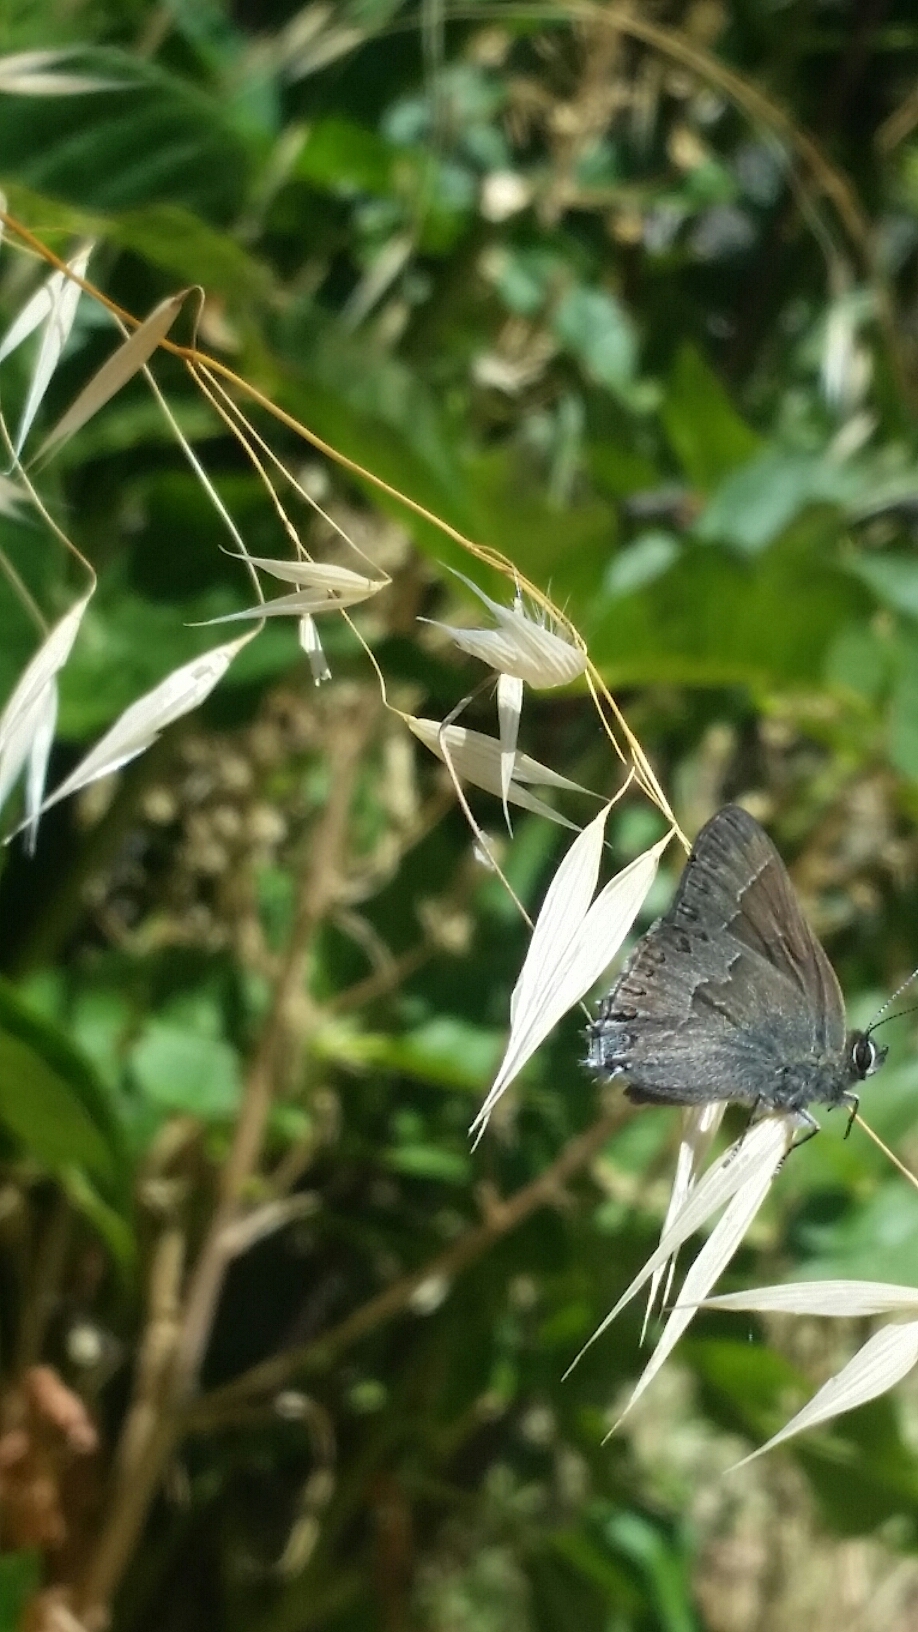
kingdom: Animalia
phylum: Arthropoda
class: Insecta
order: Lepidoptera
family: Lycaenidae
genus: Thecla
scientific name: Thecla tetra
